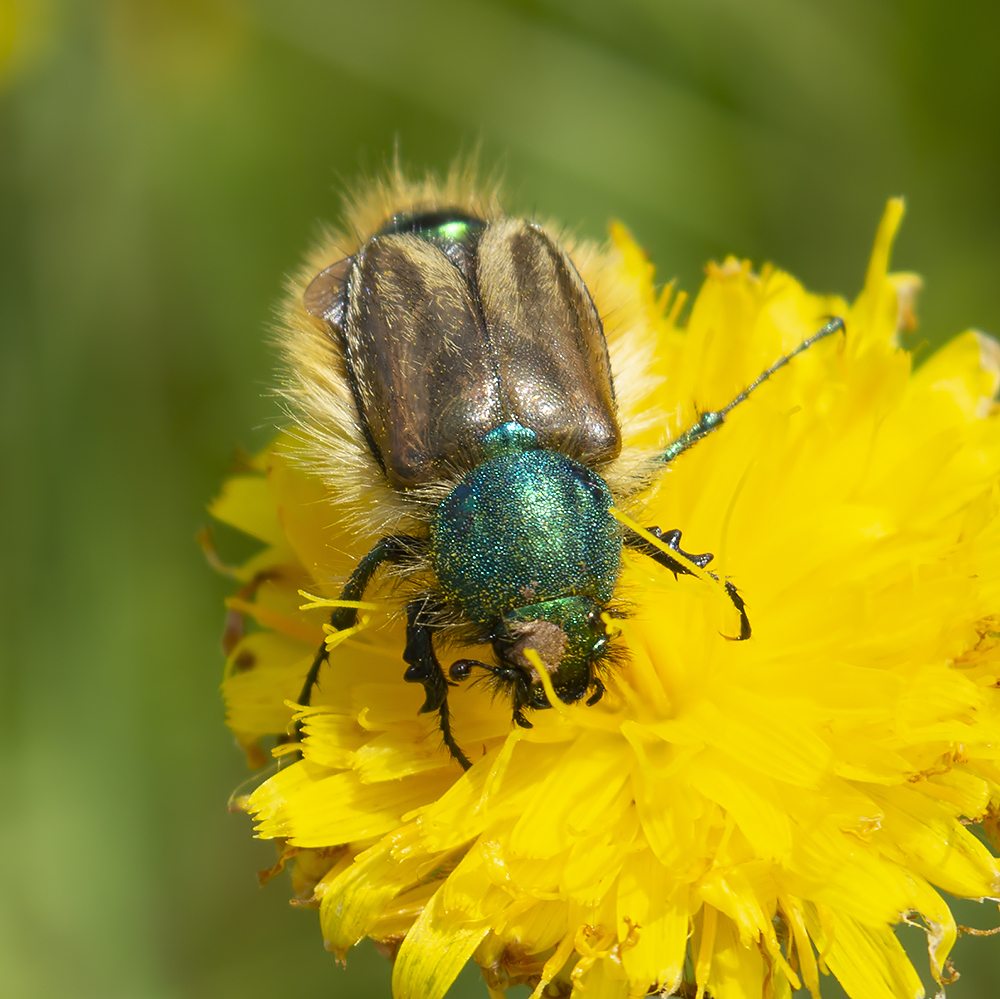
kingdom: Animalia
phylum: Arthropoda
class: Insecta
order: Coleoptera
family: Glaphyridae
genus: Eulasia
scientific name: Eulasia pareyssei
